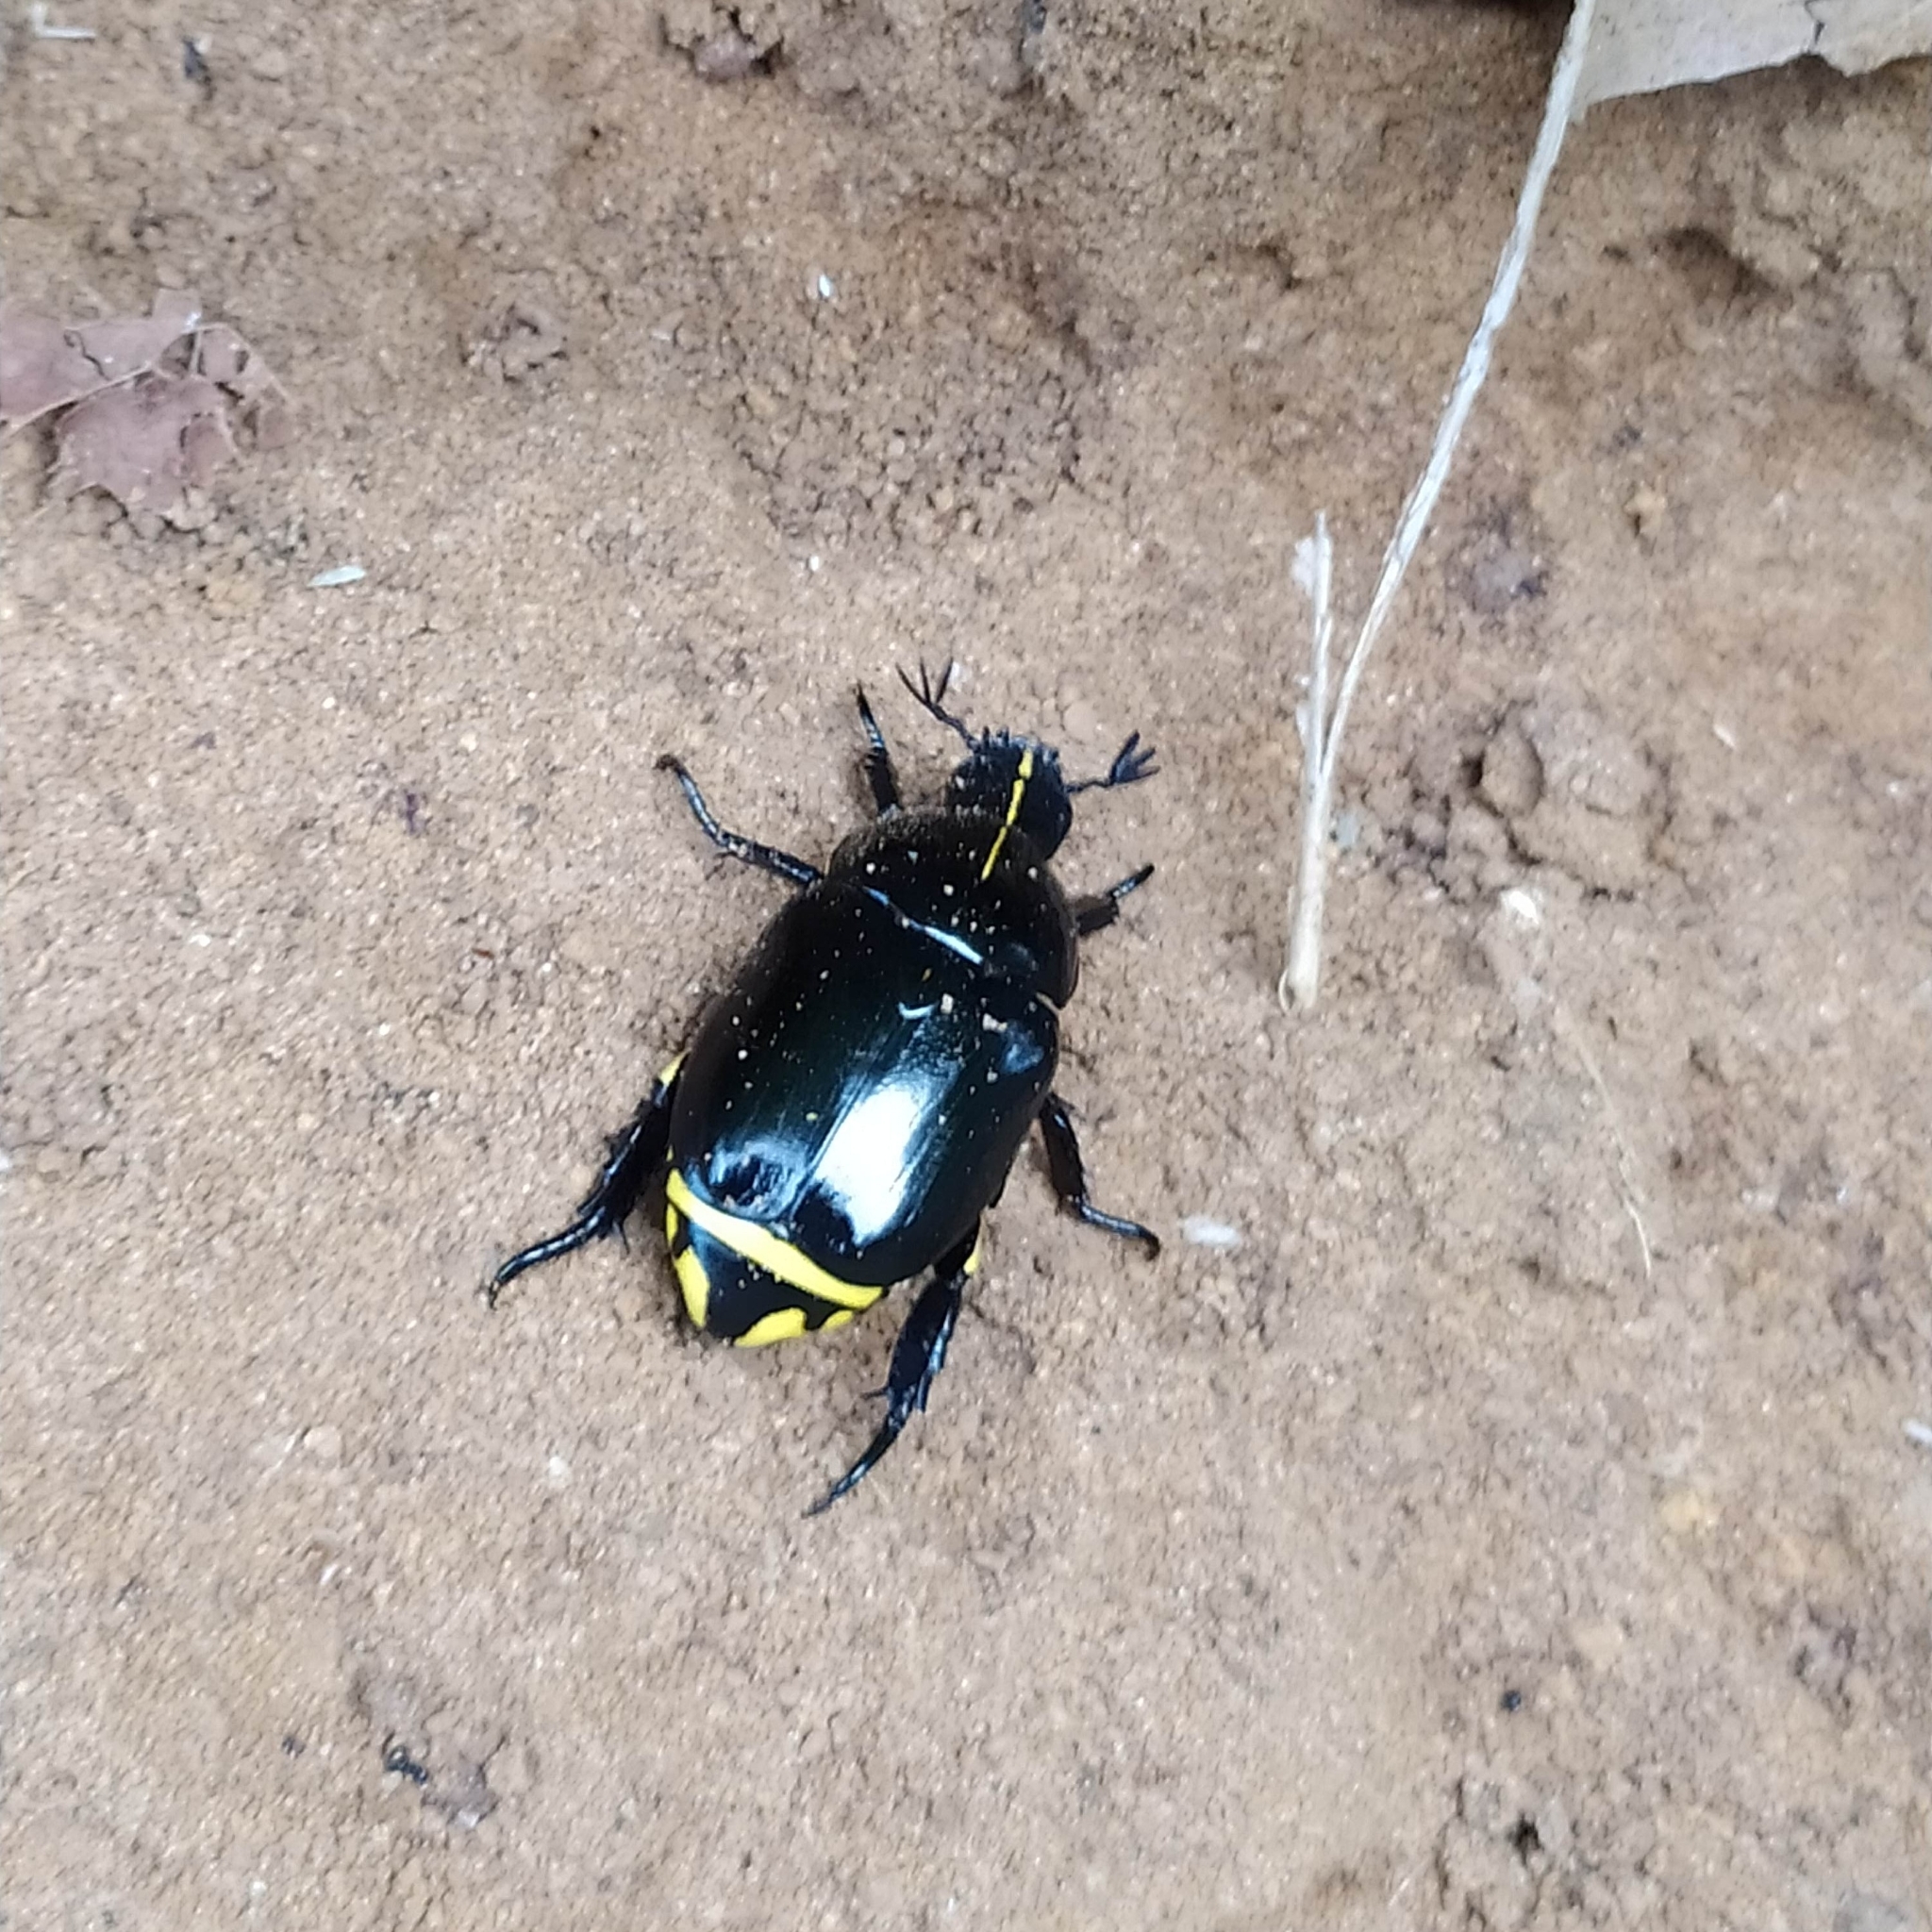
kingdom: Animalia
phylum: Arthropoda
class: Insecta
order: Coleoptera
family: Scarabaeidae
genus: Rutela
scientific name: Rutela lineola
